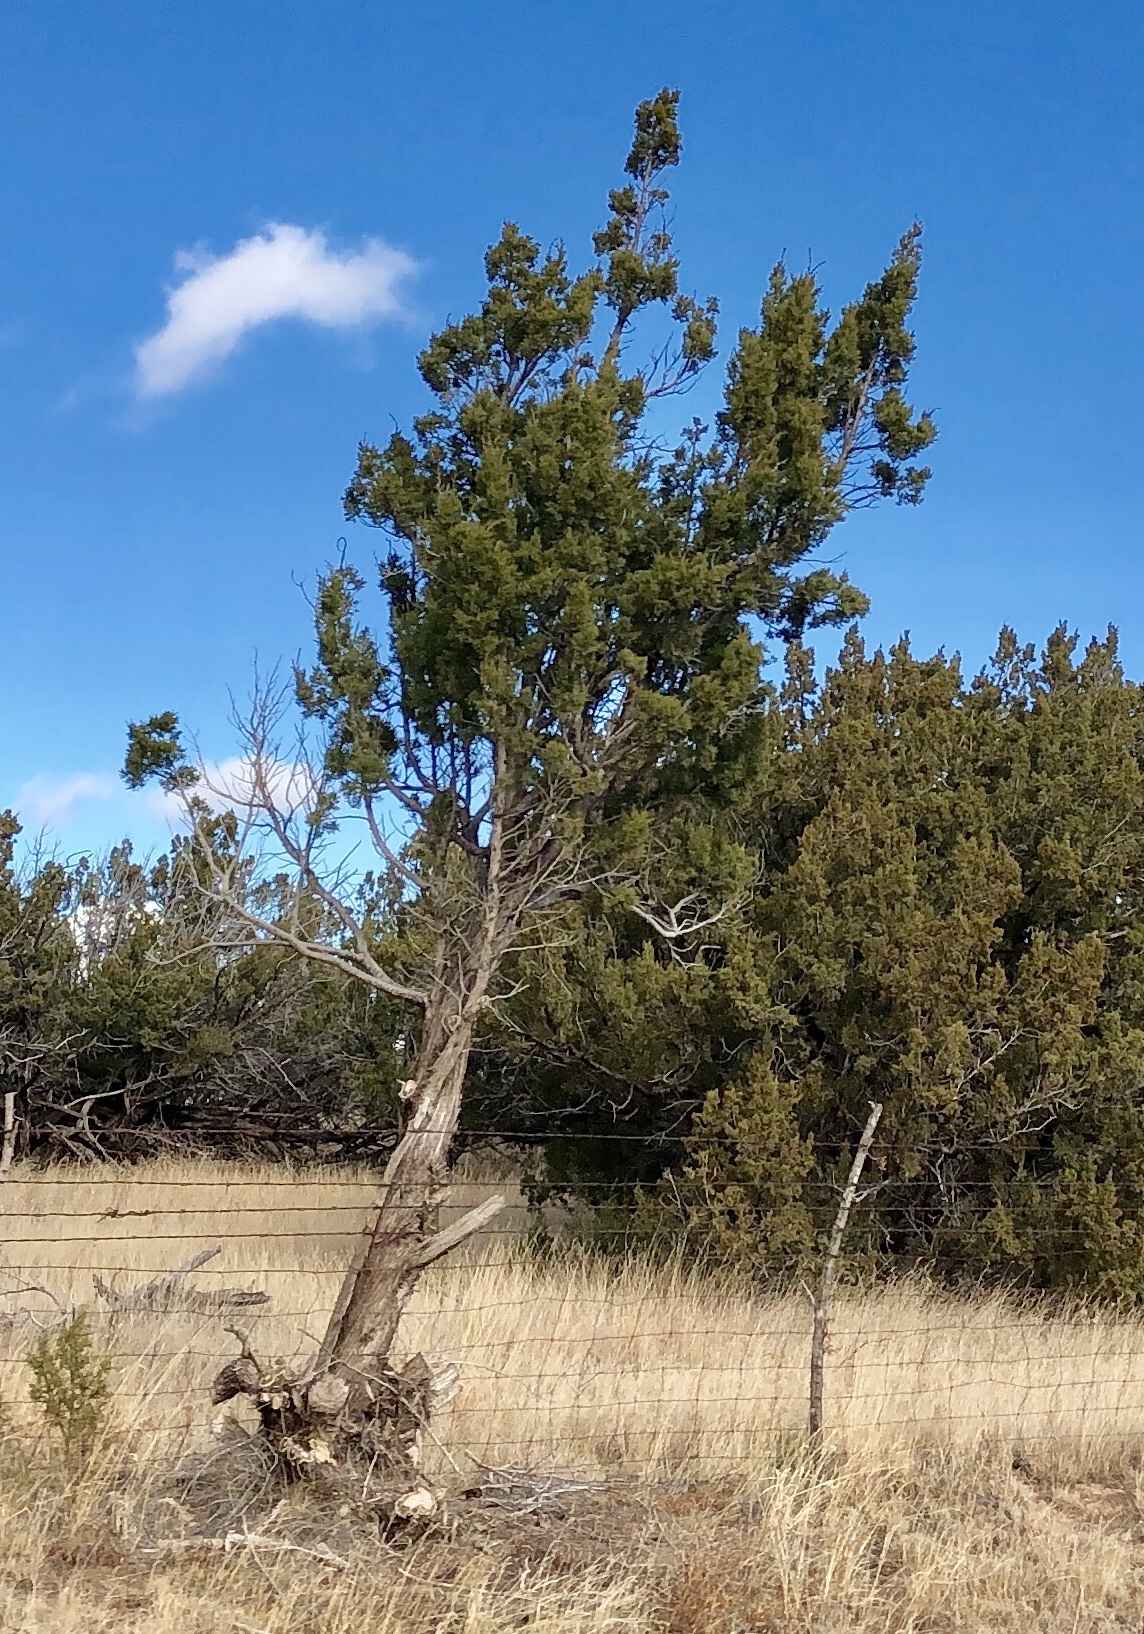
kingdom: Plantae
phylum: Tracheophyta
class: Pinopsida
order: Pinales
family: Cupressaceae
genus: Juniperus
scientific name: Juniperus monosperma
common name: One-seed juniper
